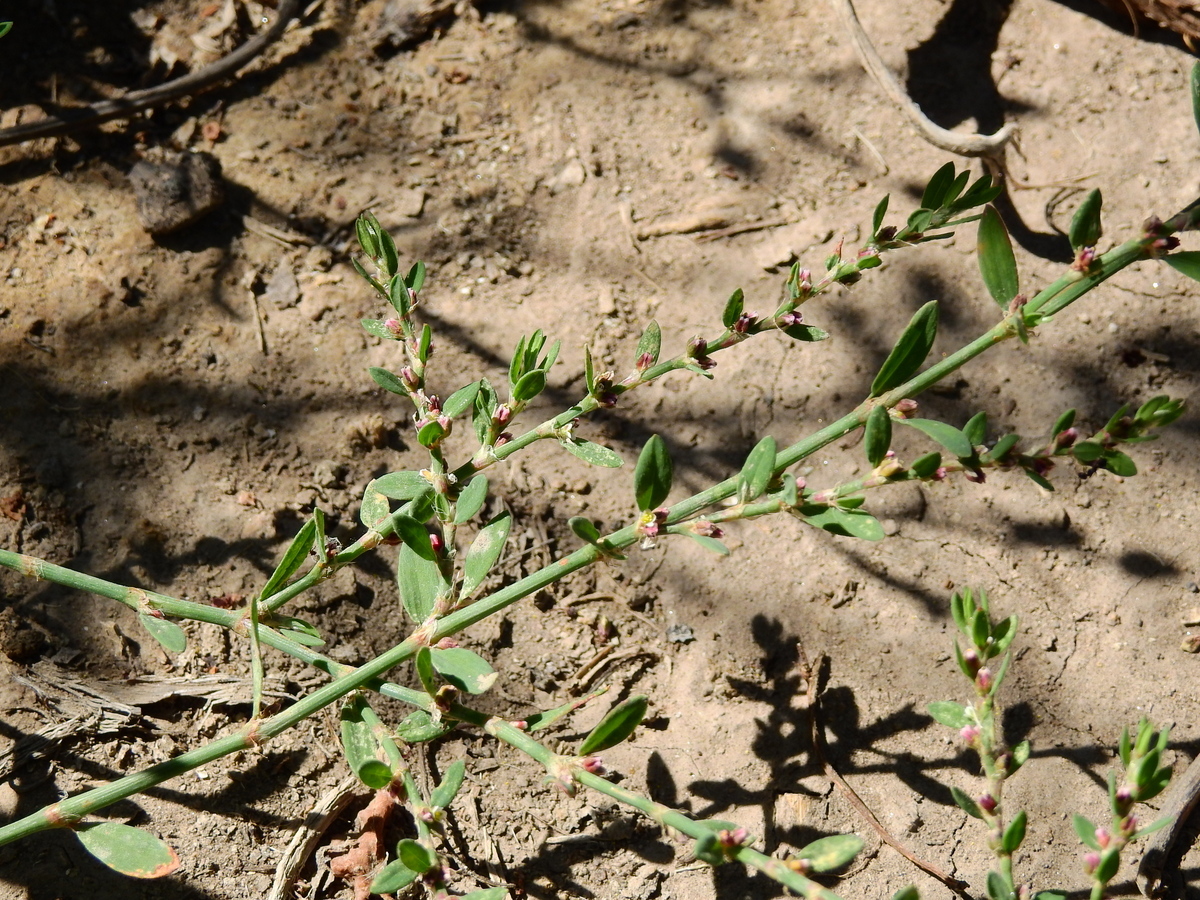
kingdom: Plantae
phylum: Tracheophyta
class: Magnoliopsida
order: Caryophyllales
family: Polygonaceae
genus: Polygonum
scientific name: Polygonum aviculare
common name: Prostrate knotweed
